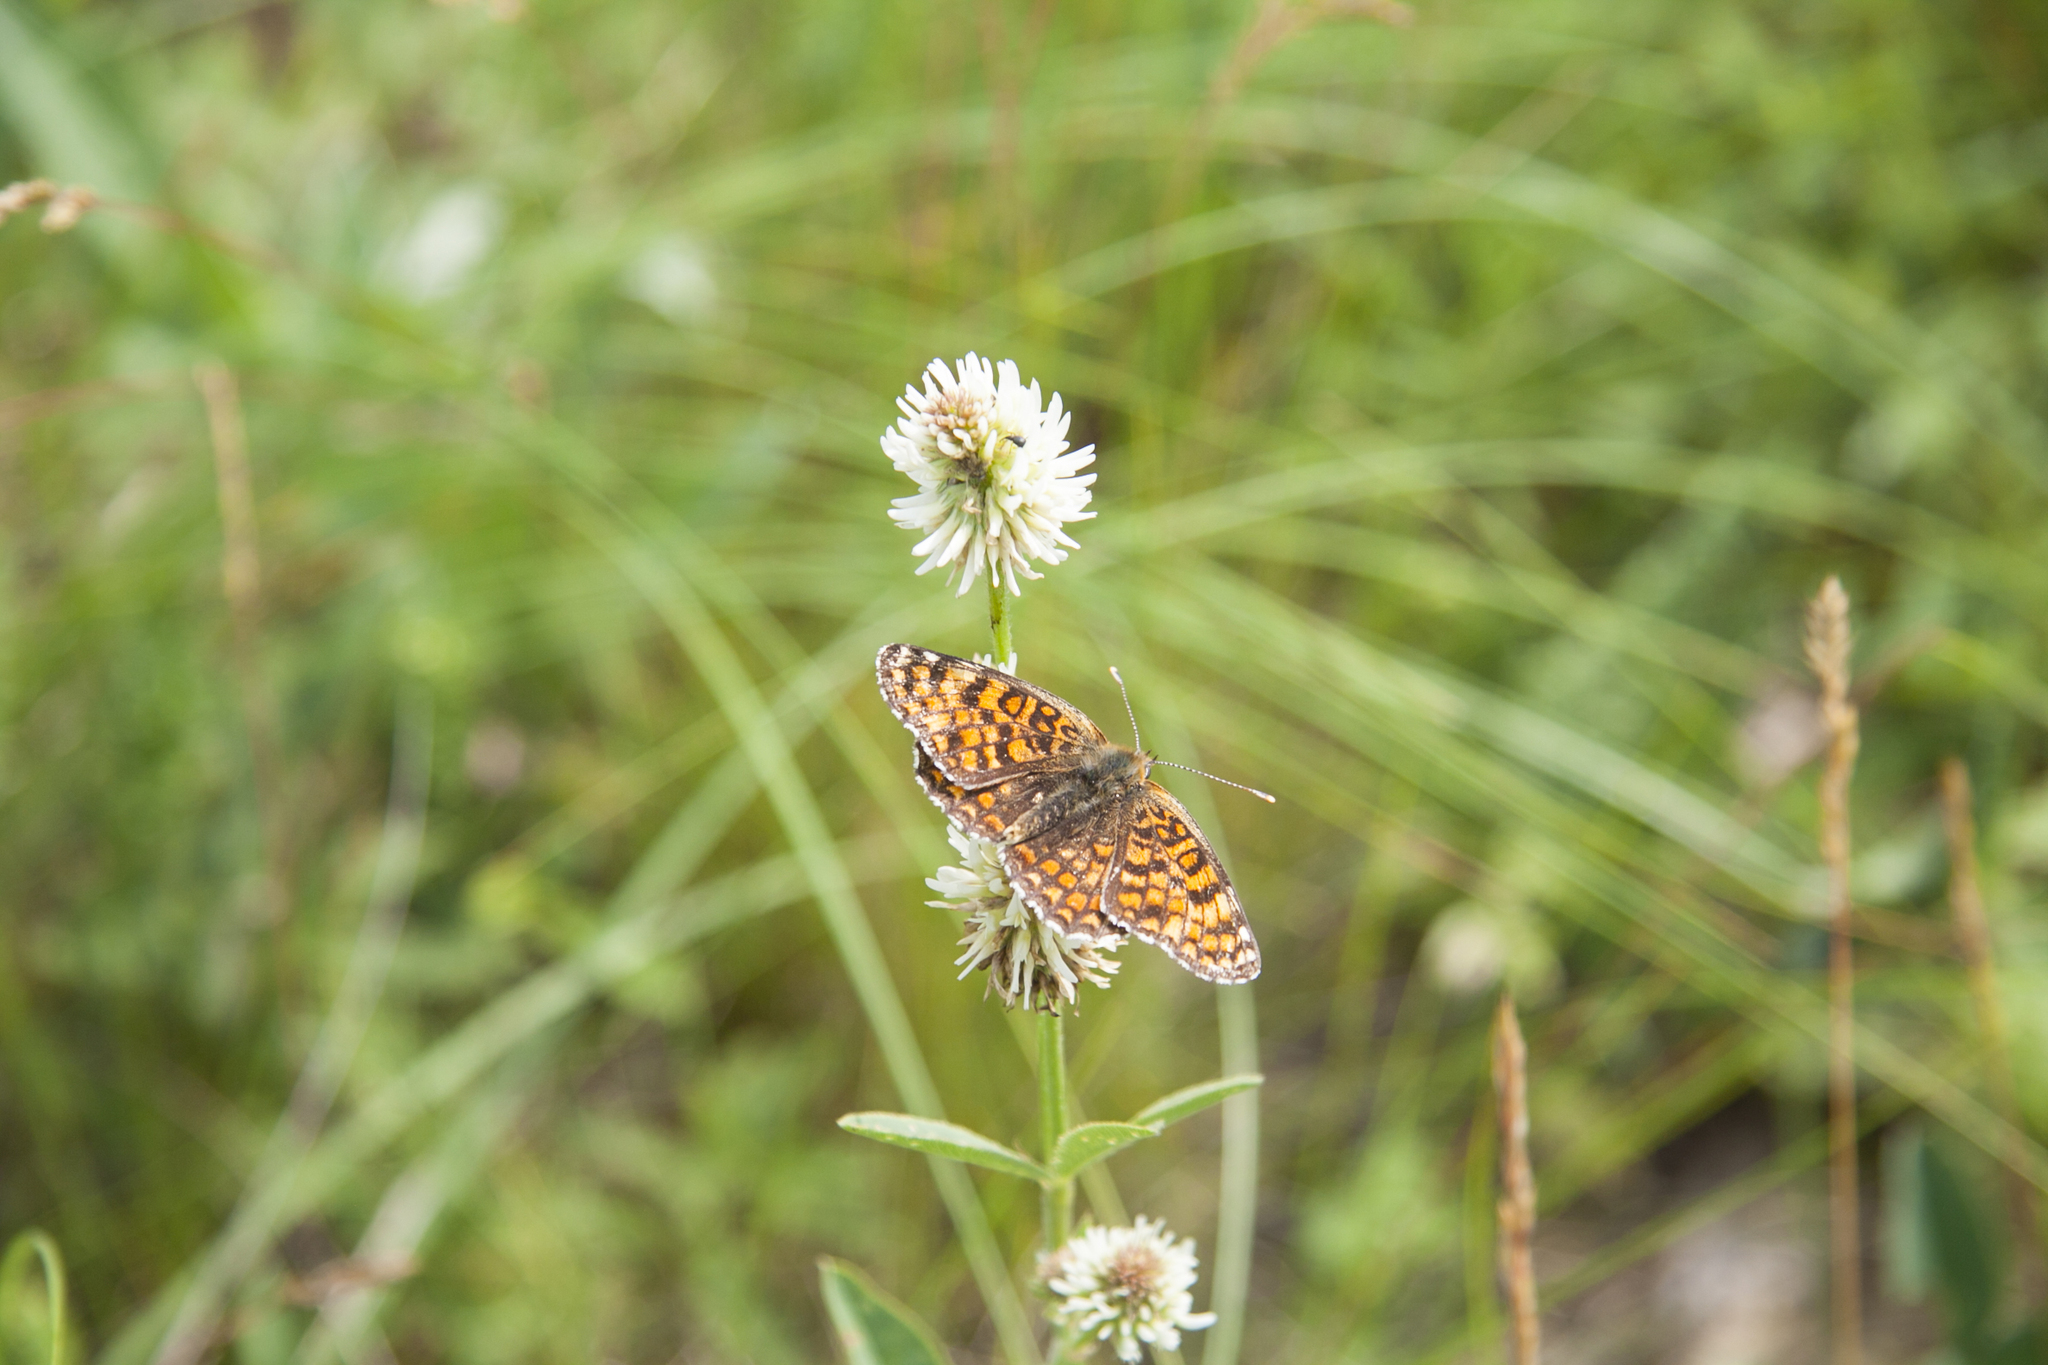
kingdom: Animalia
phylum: Arthropoda
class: Insecta
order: Lepidoptera
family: Nymphalidae
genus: Melitaea
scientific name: Melitaea phoebe
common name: Knapweed fritillary
